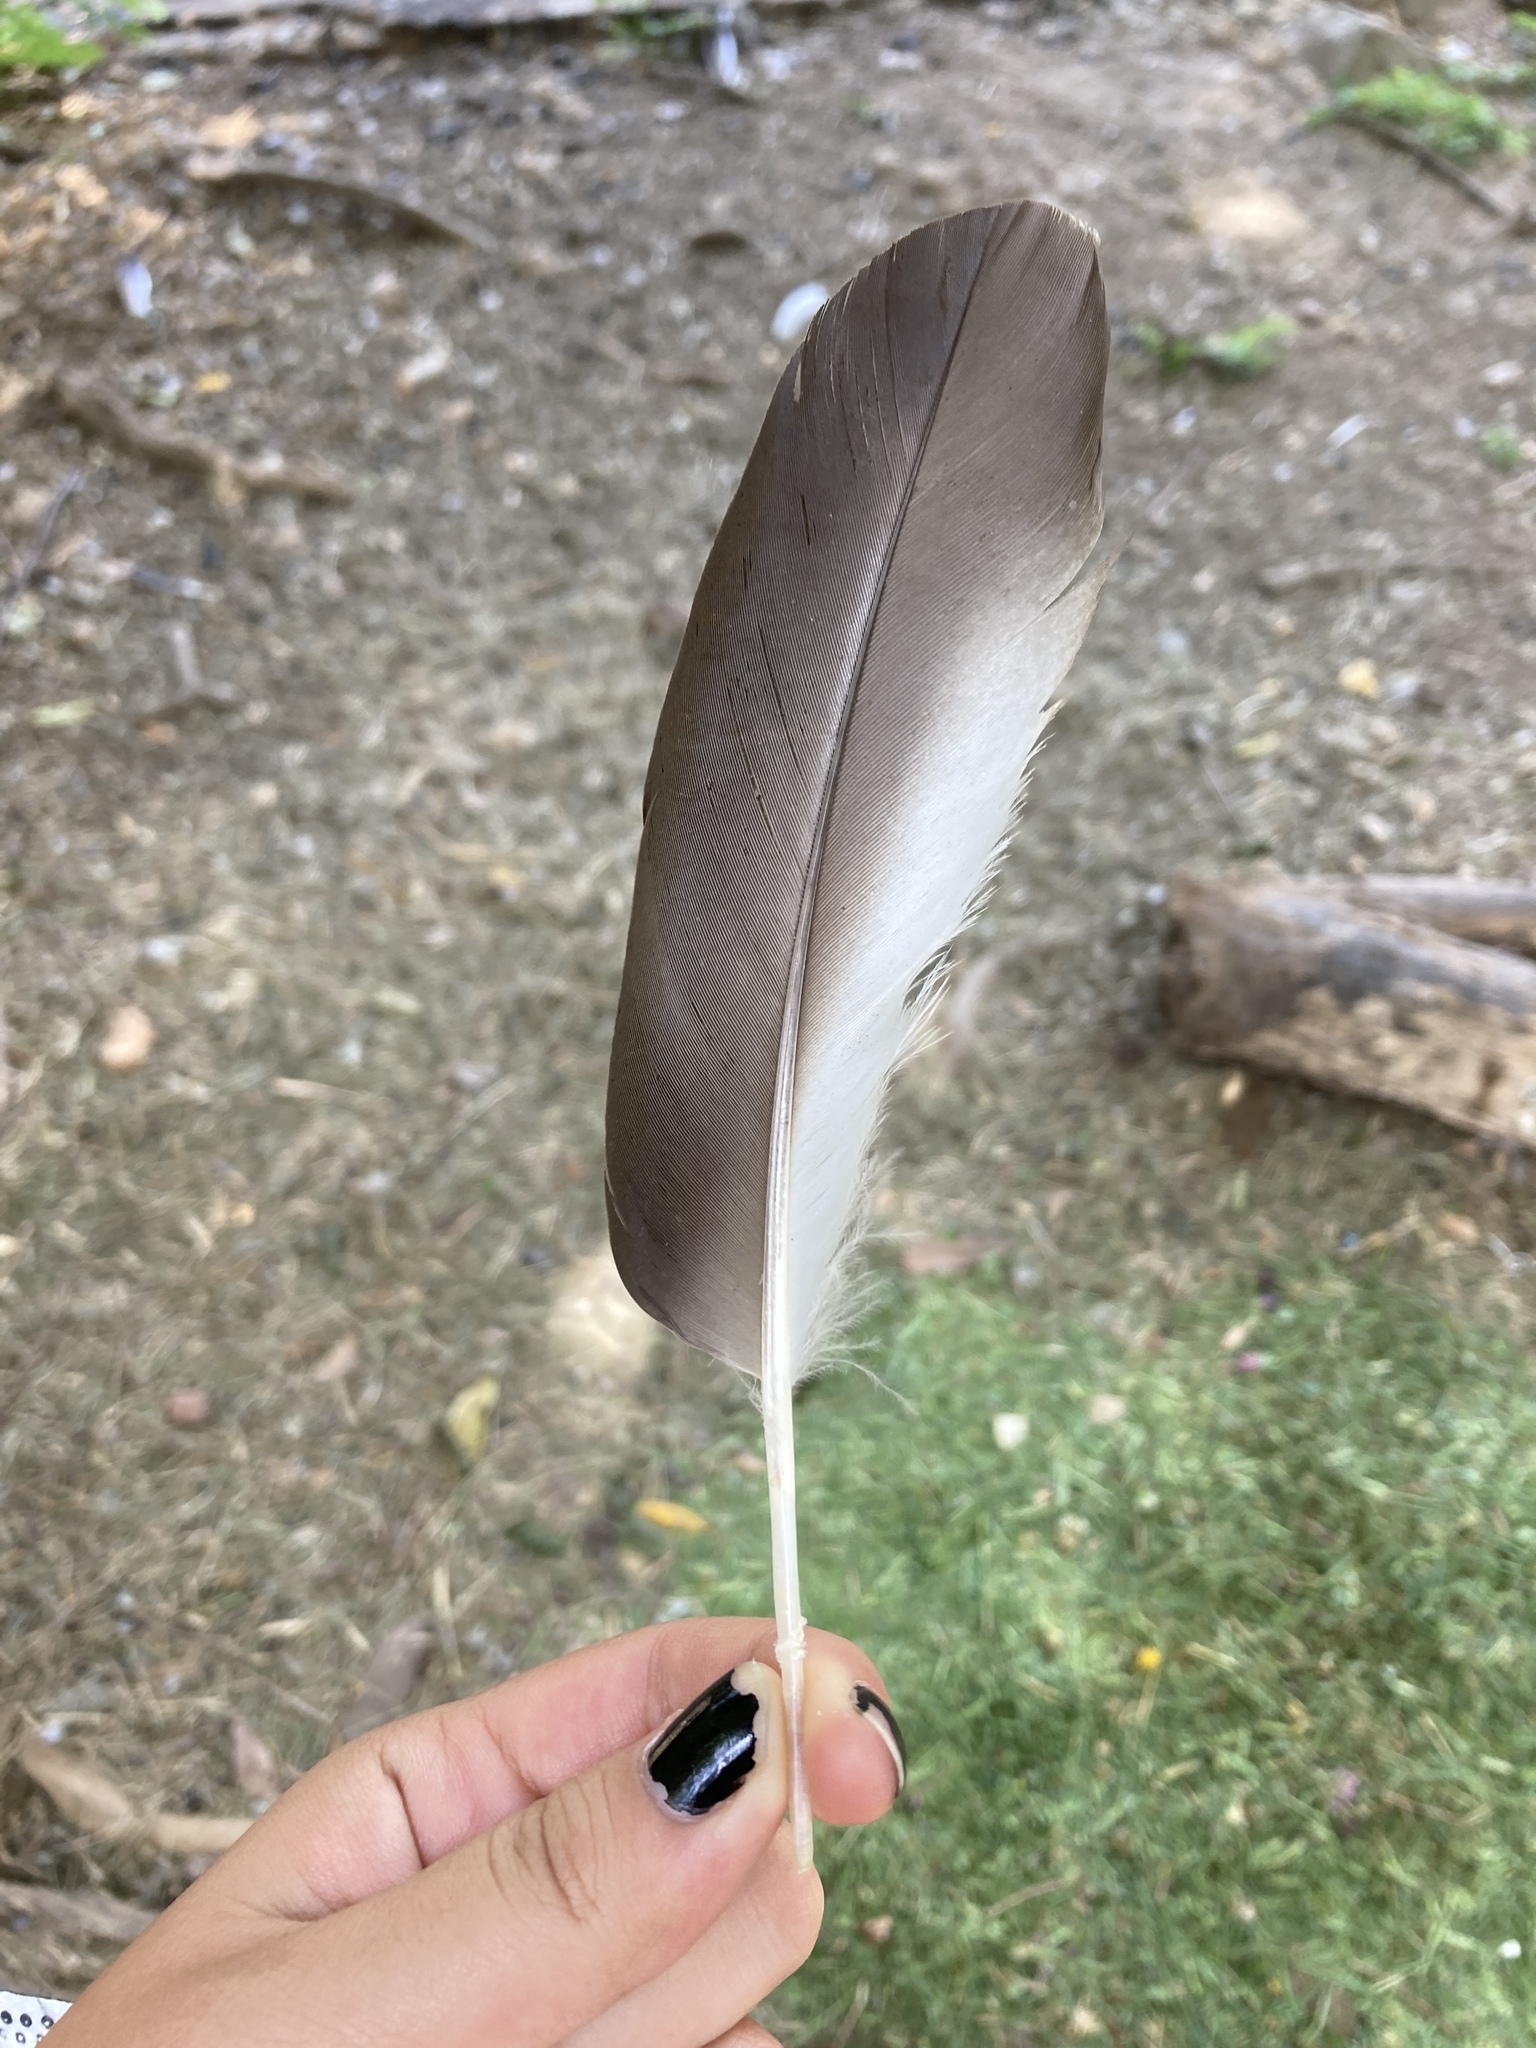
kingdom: Animalia
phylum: Chordata
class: Aves
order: Anseriformes
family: Anatidae
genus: Tadorna
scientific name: Tadorna ferruginea
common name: Ruddy shelduck
